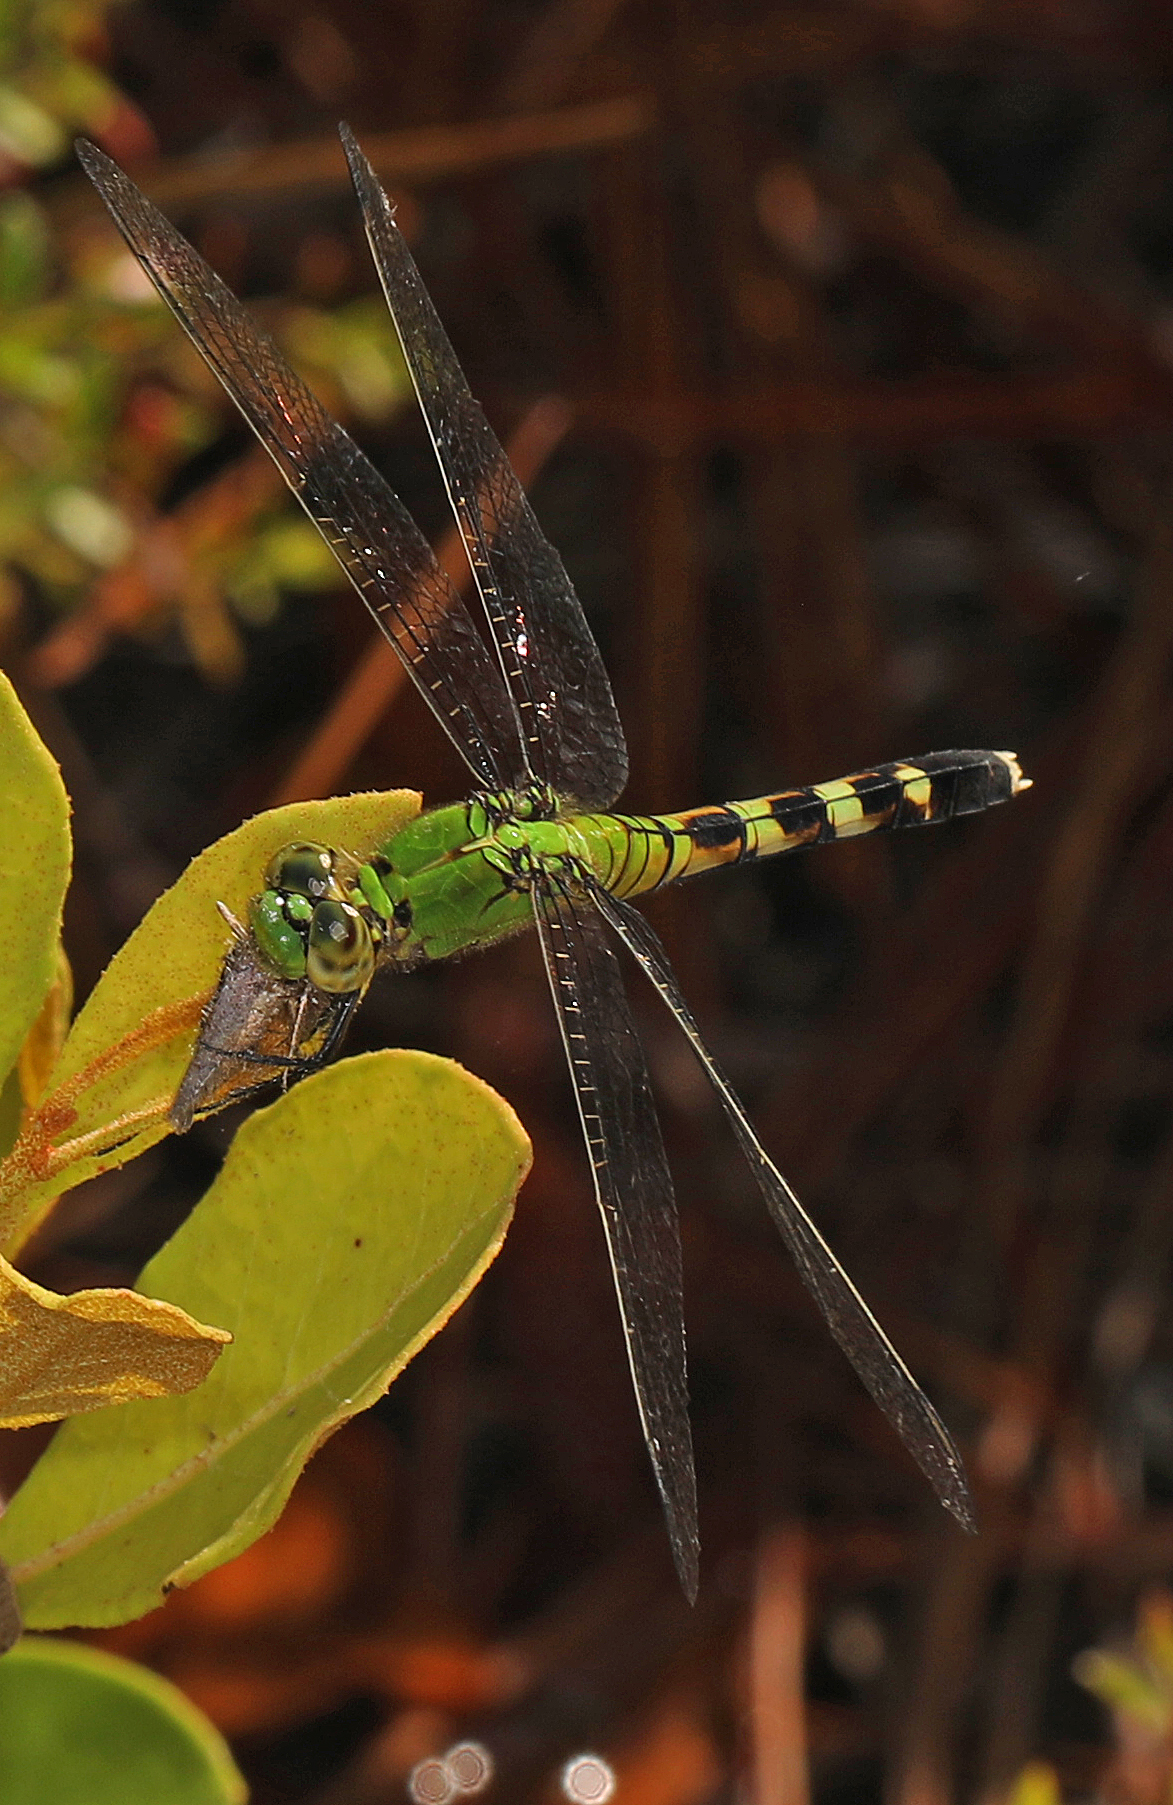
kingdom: Animalia
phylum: Arthropoda
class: Insecta
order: Odonata
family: Libellulidae
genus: Erythemis
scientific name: Erythemis simplicicollis
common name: Eastern pondhawk
